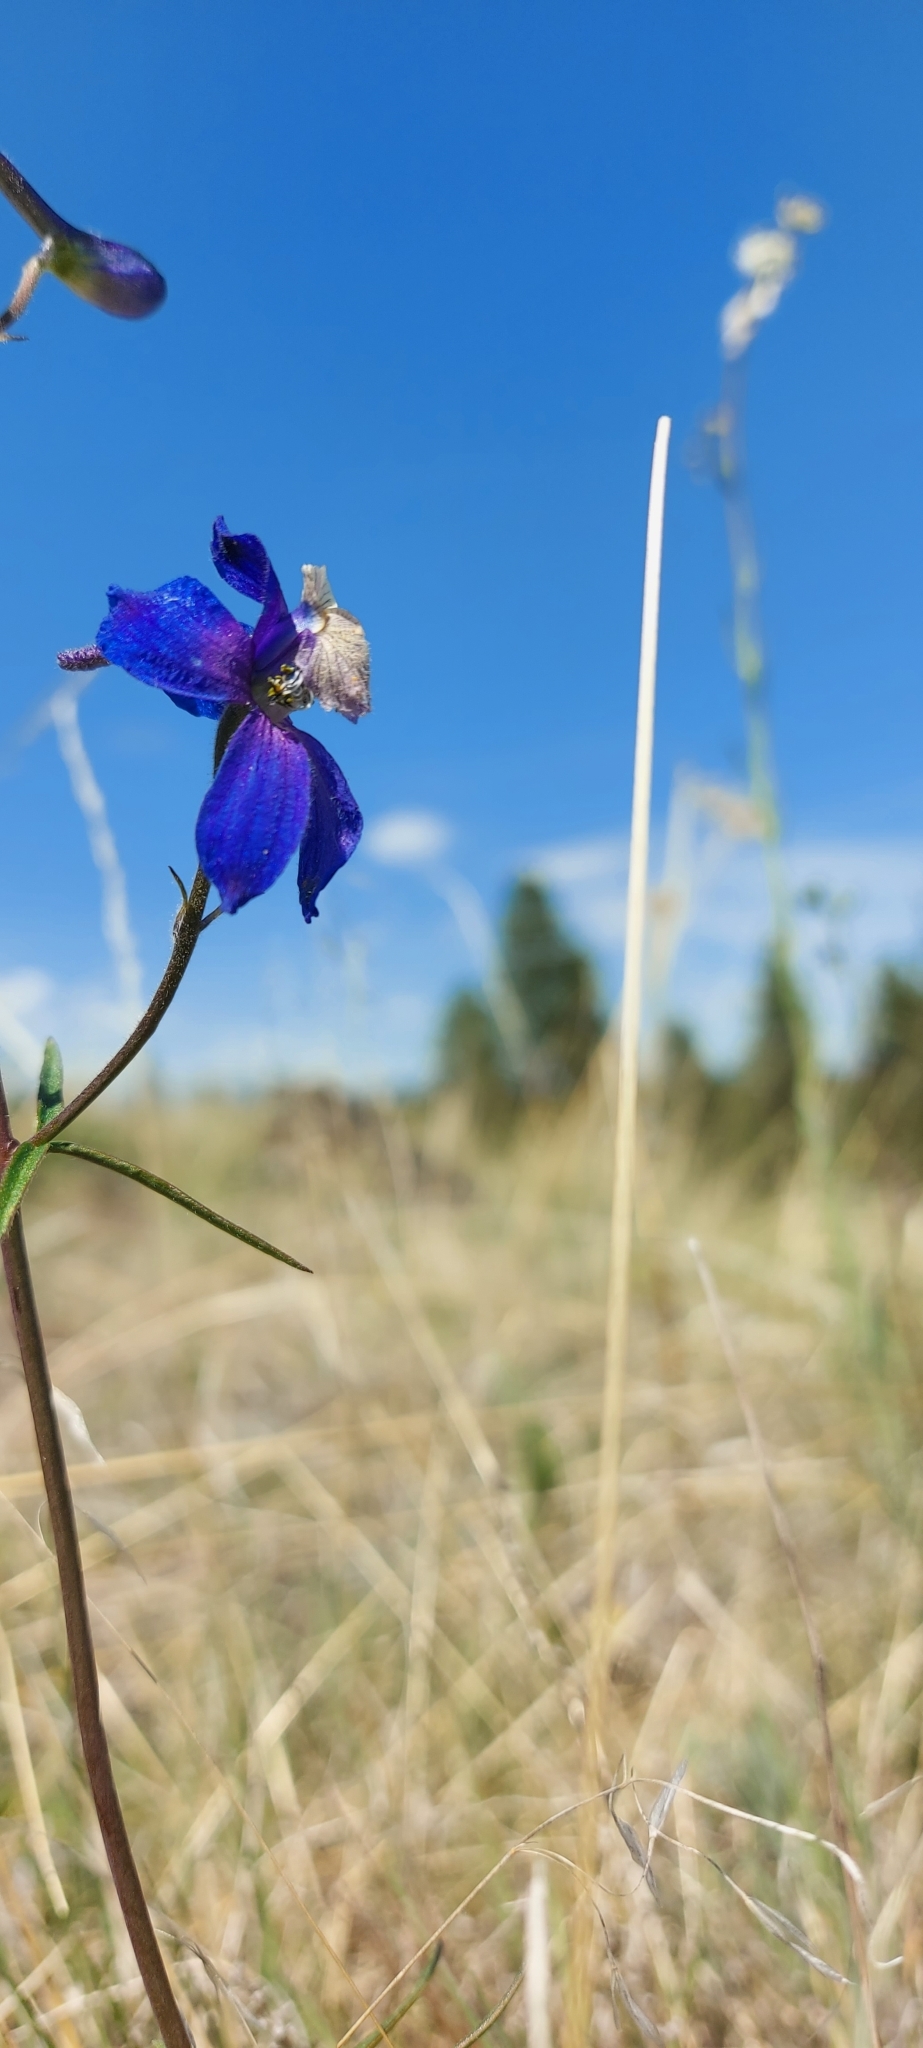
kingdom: Plantae
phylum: Tracheophyta
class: Magnoliopsida
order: Ranunculales
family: Ranunculaceae
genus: Delphinium
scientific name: Delphinium sutherlandii
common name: Sutherland's larkspur
